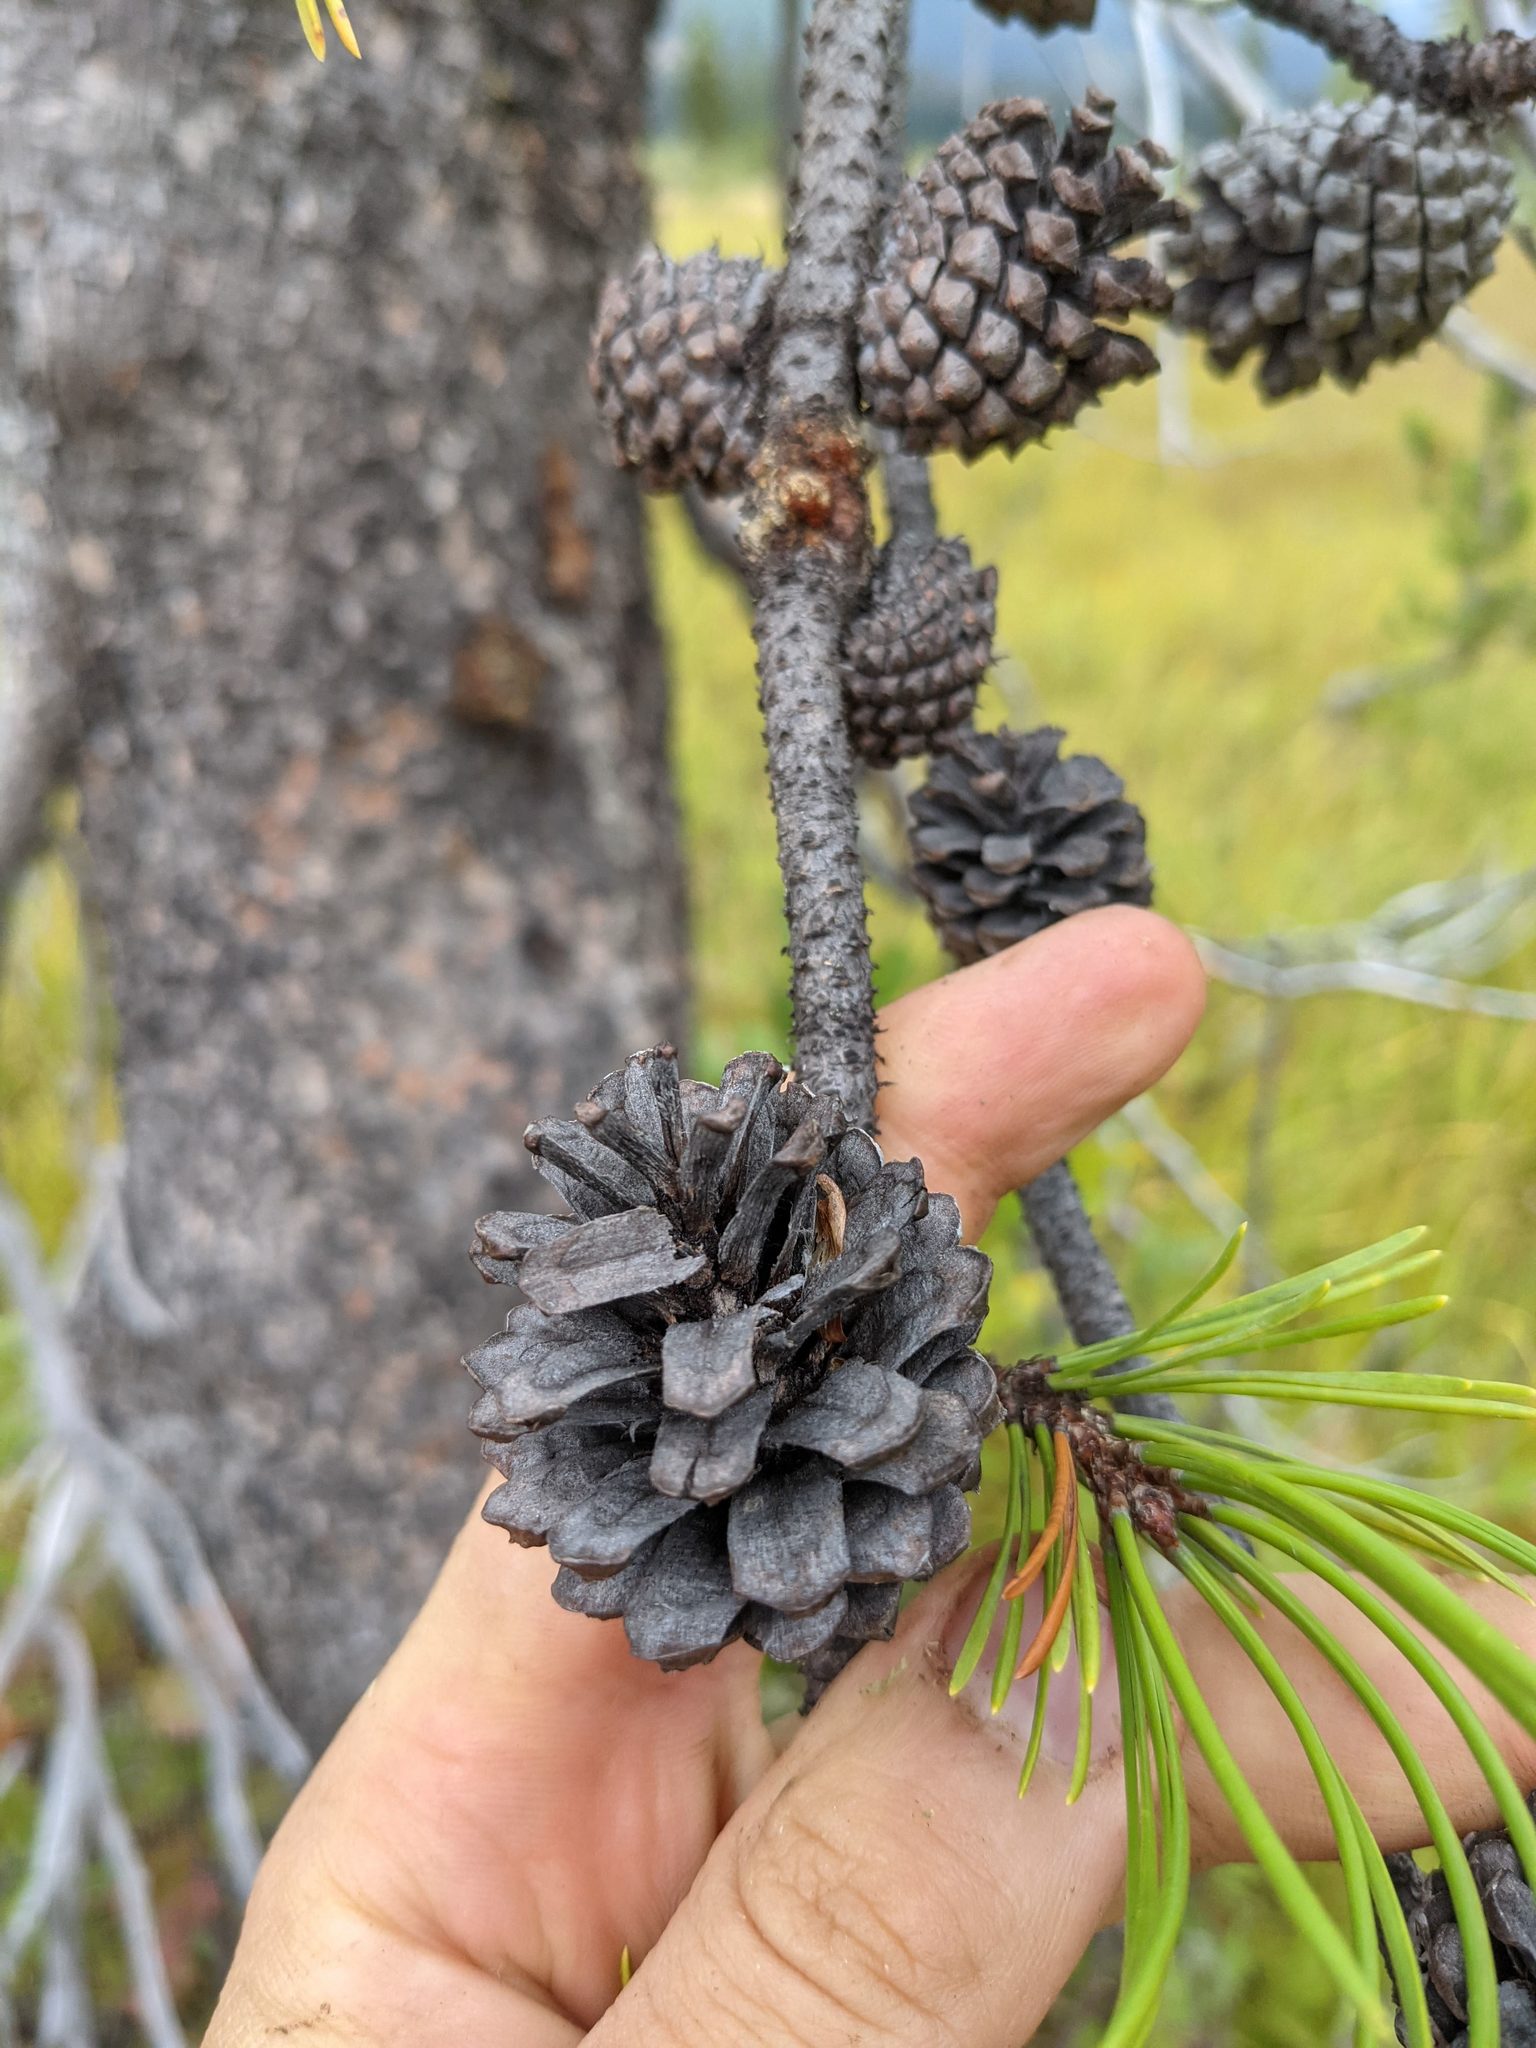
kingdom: Plantae
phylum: Tracheophyta
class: Pinopsida
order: Pinales
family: Pinaceae
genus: Pinus
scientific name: Pinus contorta
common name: Lodgepole pine
